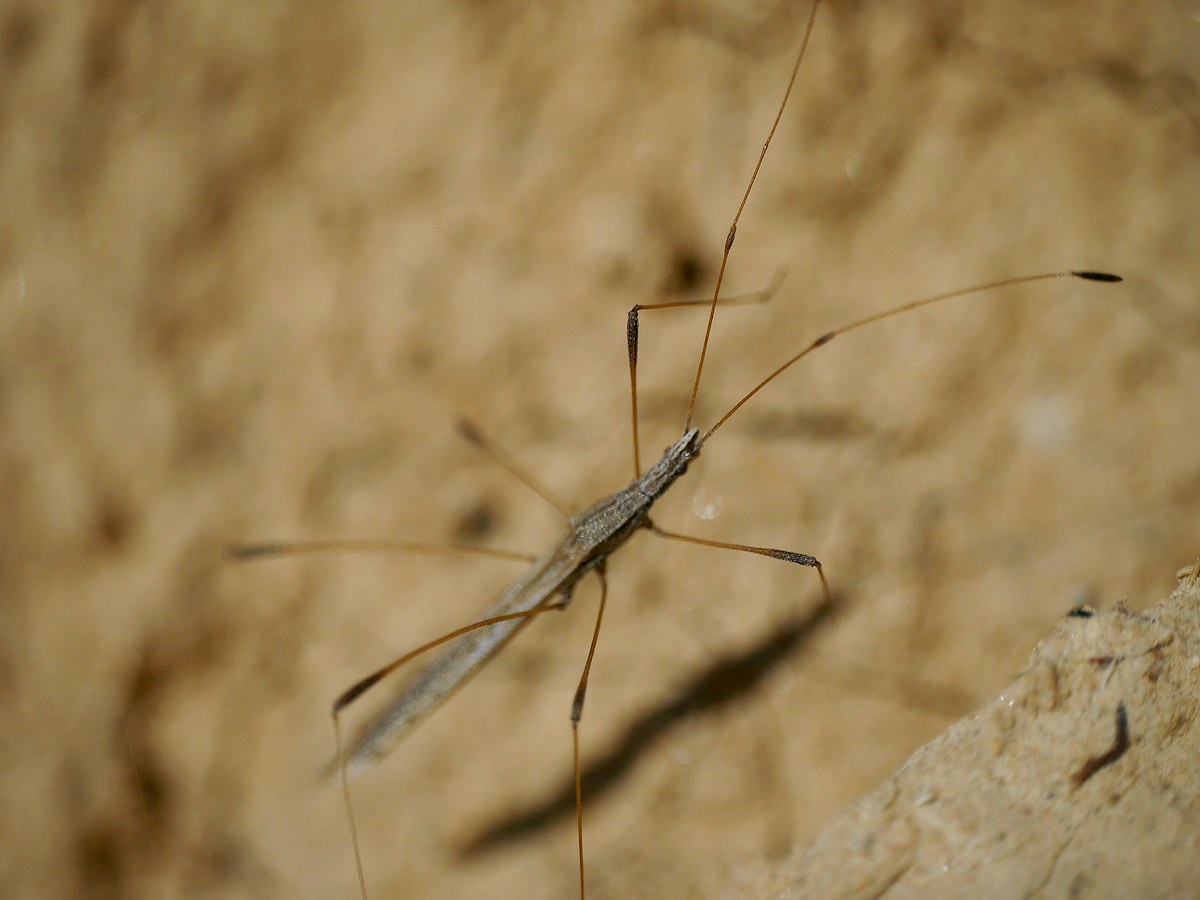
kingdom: Animalia
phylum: Arthropoda
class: Insecta
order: Hemiptera
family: Berytidae
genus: Neides
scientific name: Neides tipularius
